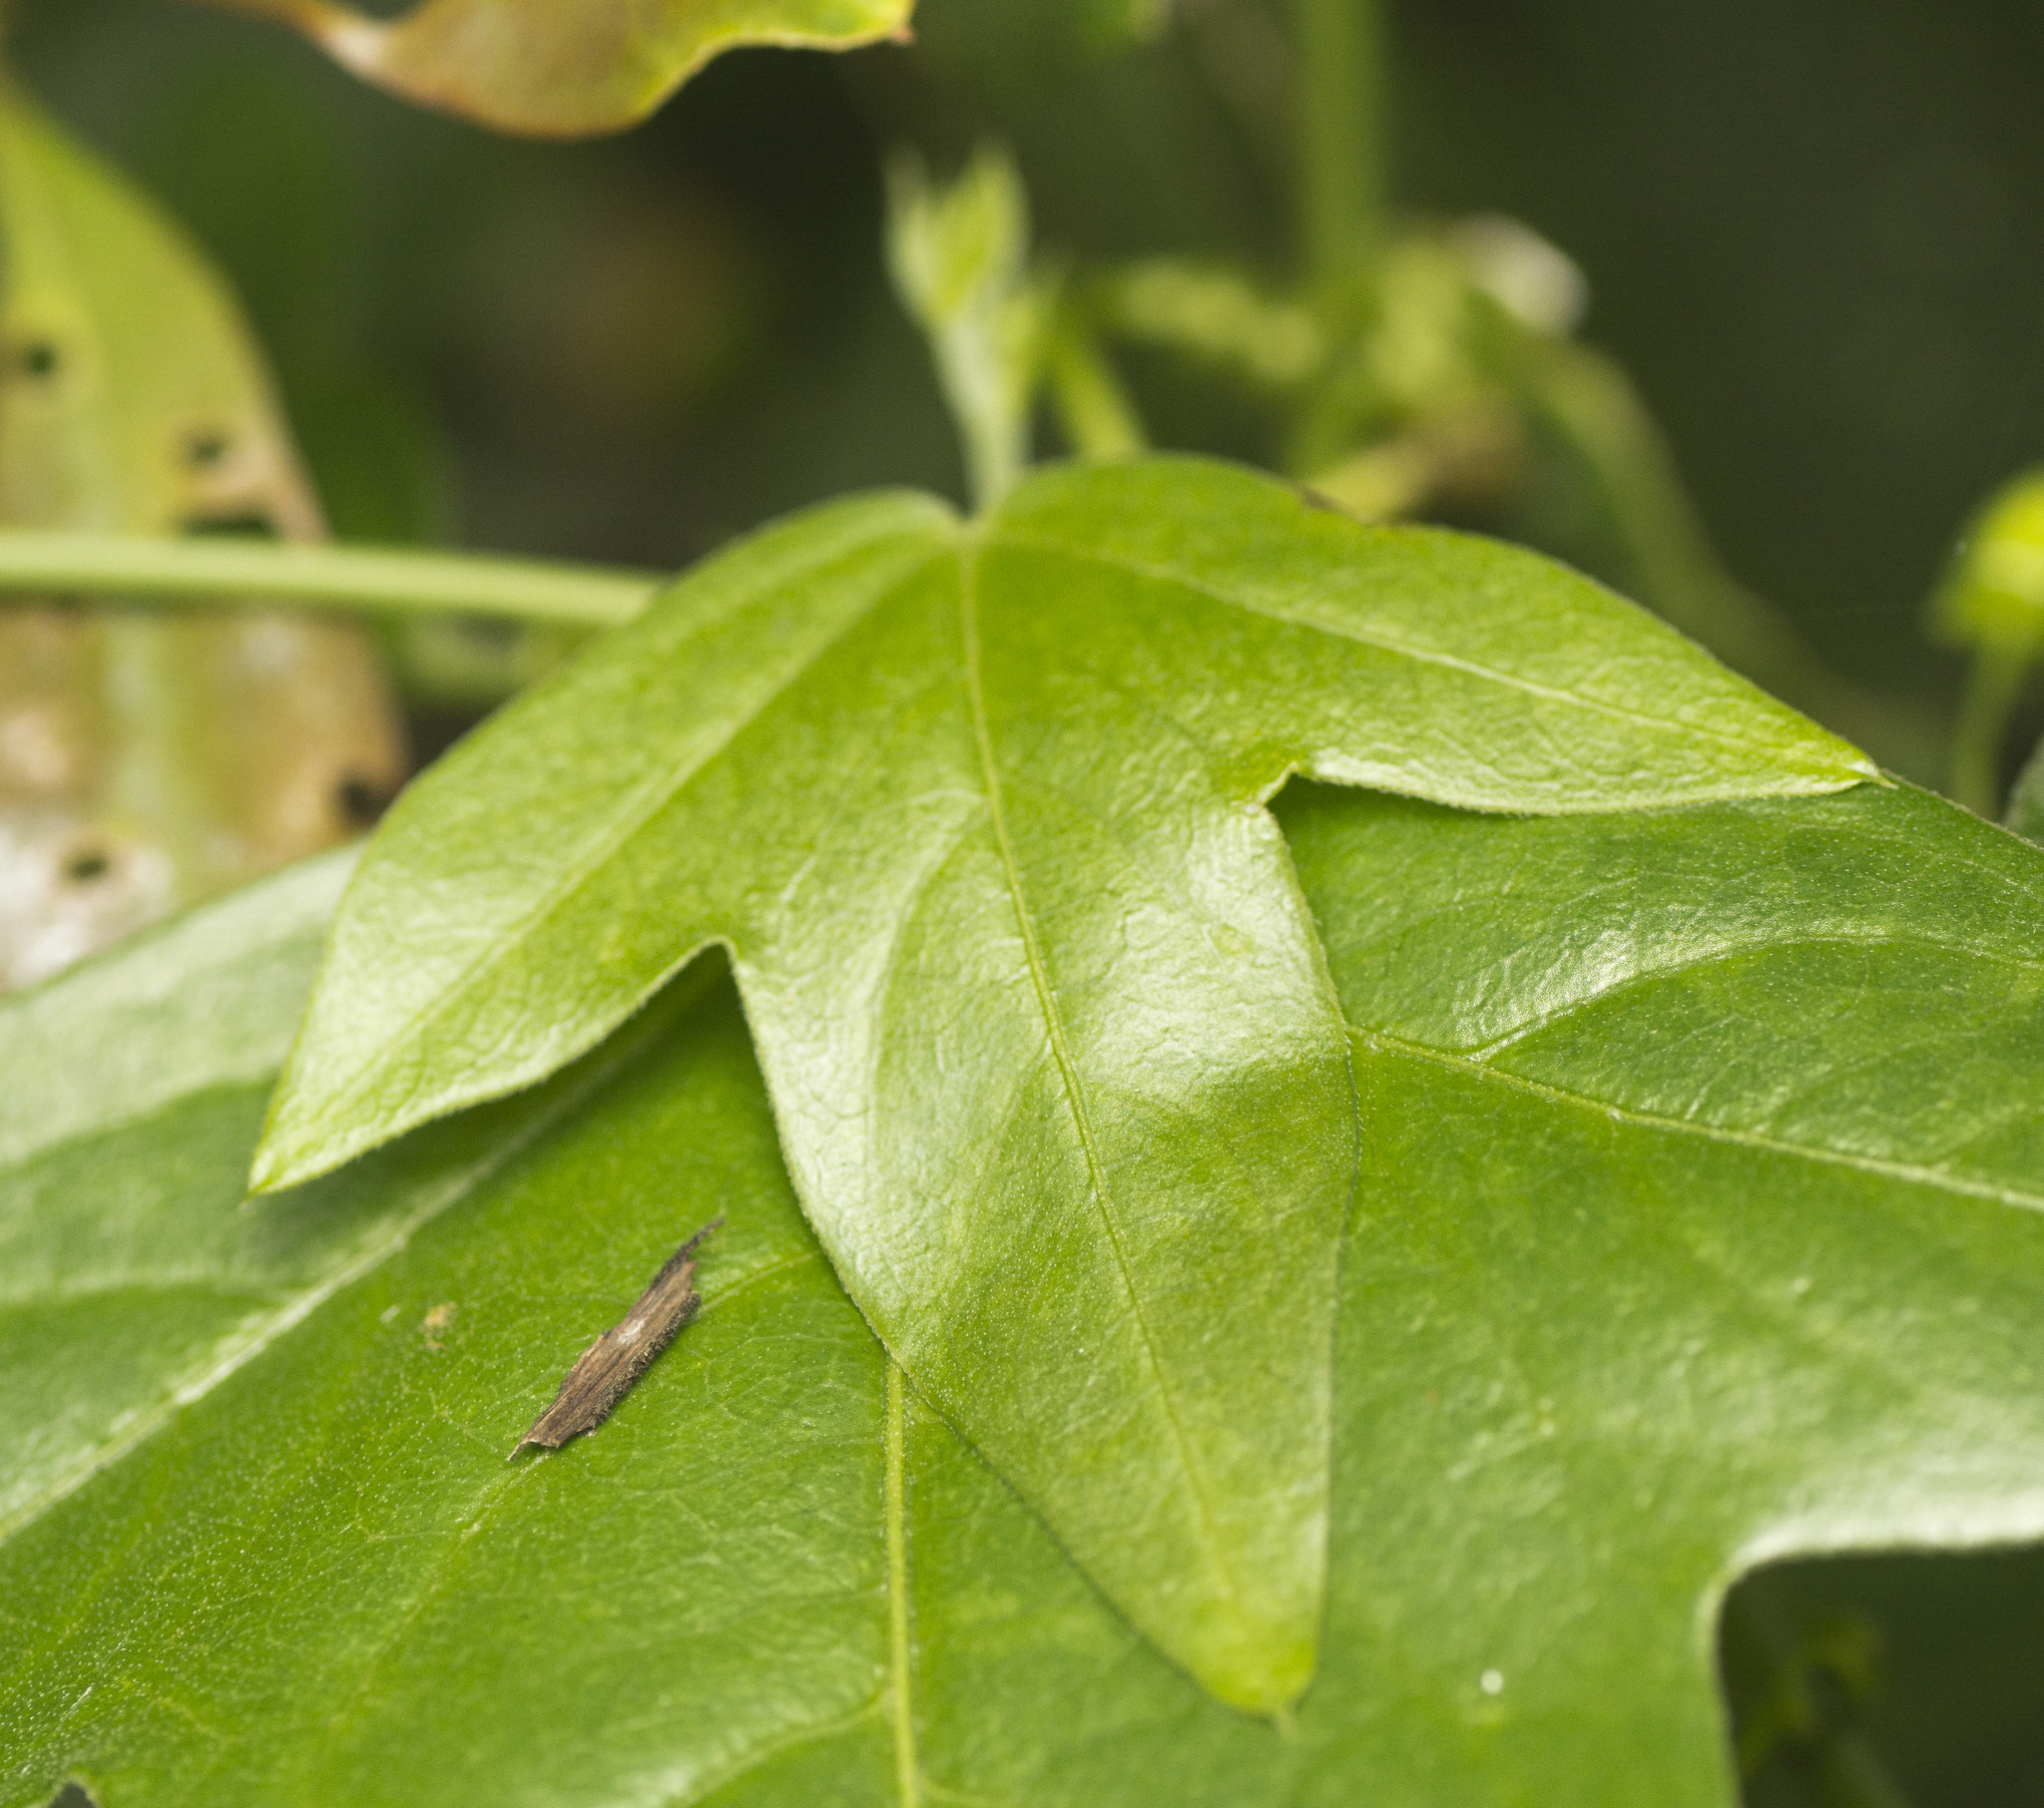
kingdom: Plantae
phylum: Tracheophyta
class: Magnoliopsida
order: Malpighiales
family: Passifloraceae
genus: Passiflora
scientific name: Passiflora suberosa
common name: Wild passionfruit
